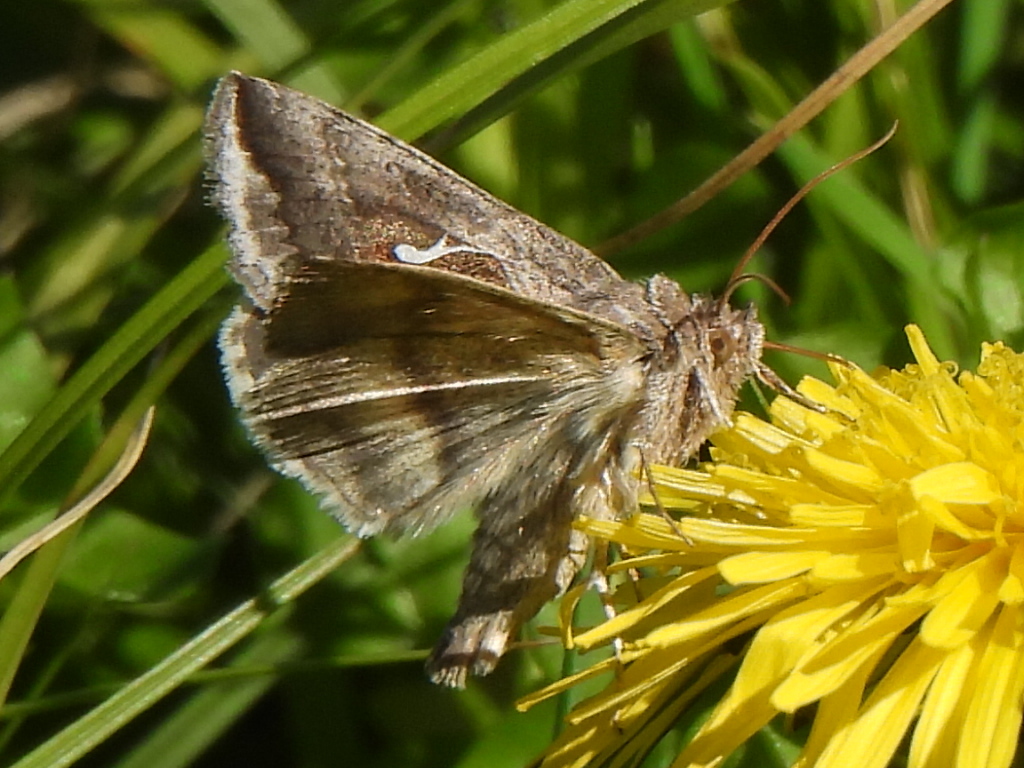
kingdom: Animalia
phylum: Arthropoda
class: Insecta
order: Lepidoptera
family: Noctuidae
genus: Anagrapha
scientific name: Anagrapha falcifera
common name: Celery looper
